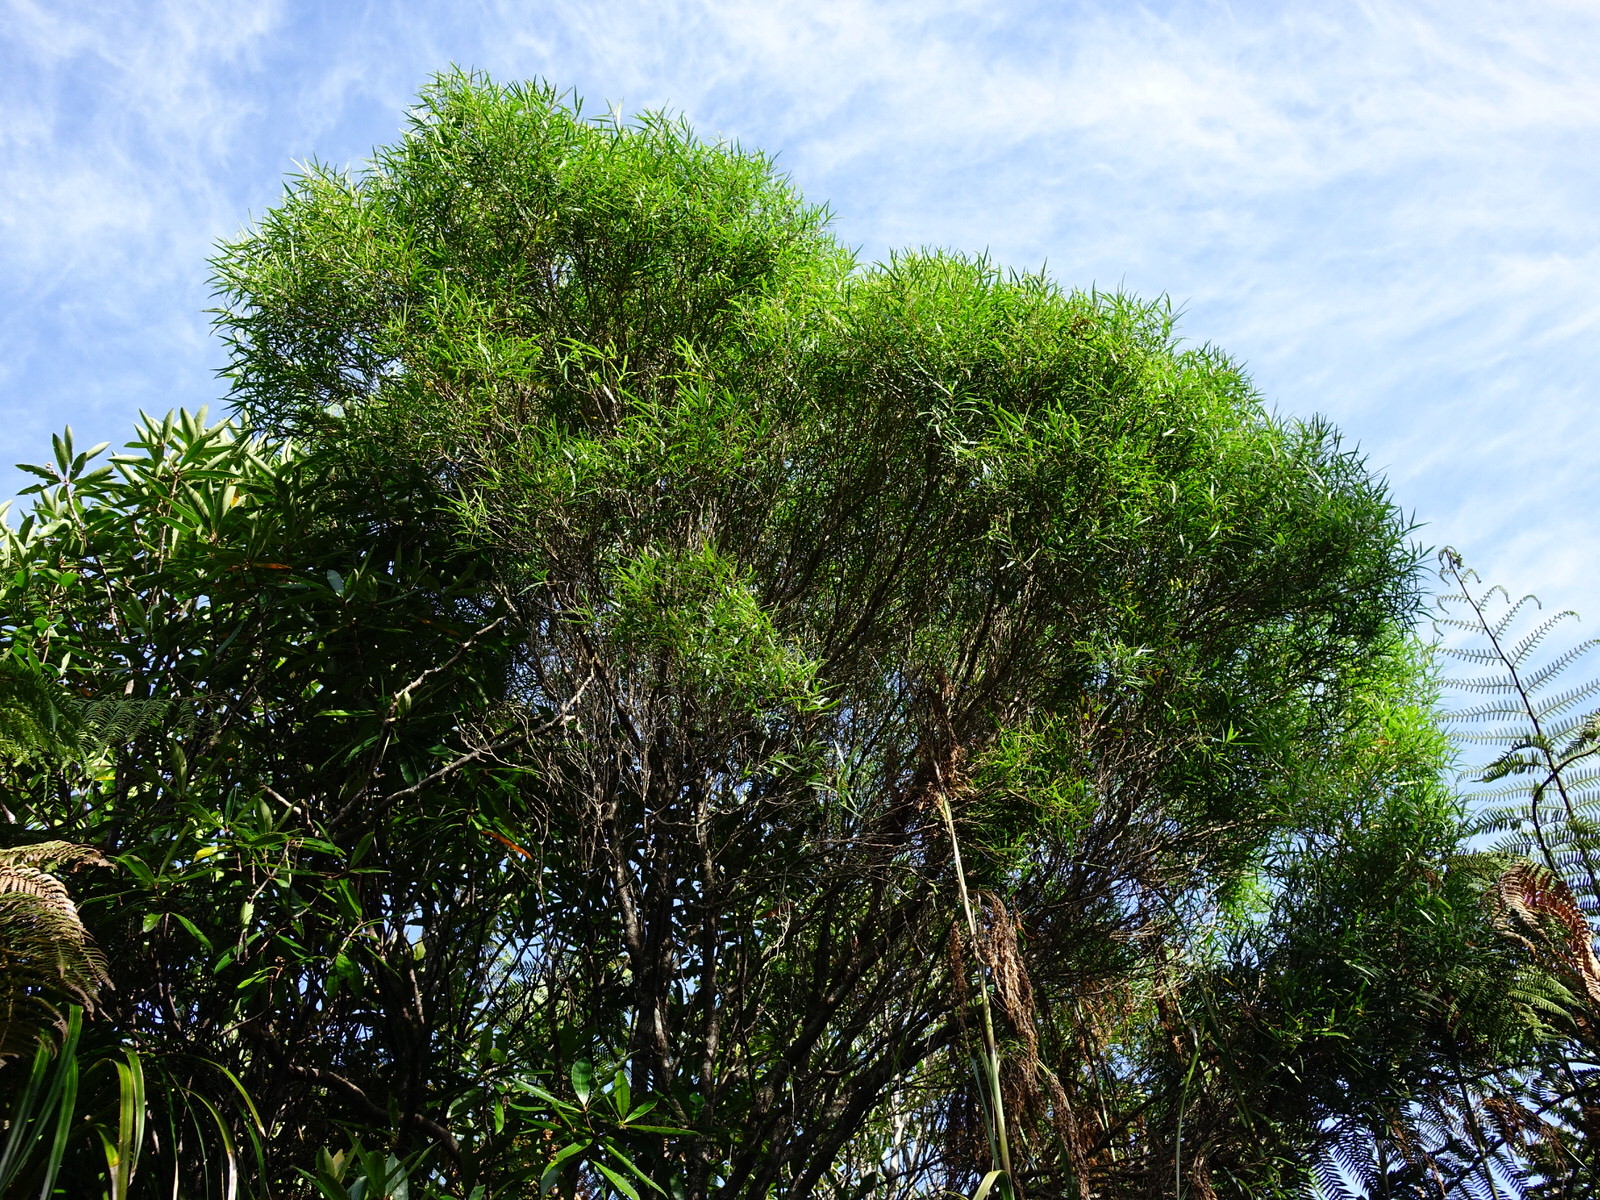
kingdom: Plantae
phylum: Tracheophyta
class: Magnoliopsida
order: Lamiales
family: Oleaceae
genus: Nestegis
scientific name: Nestegis montana
